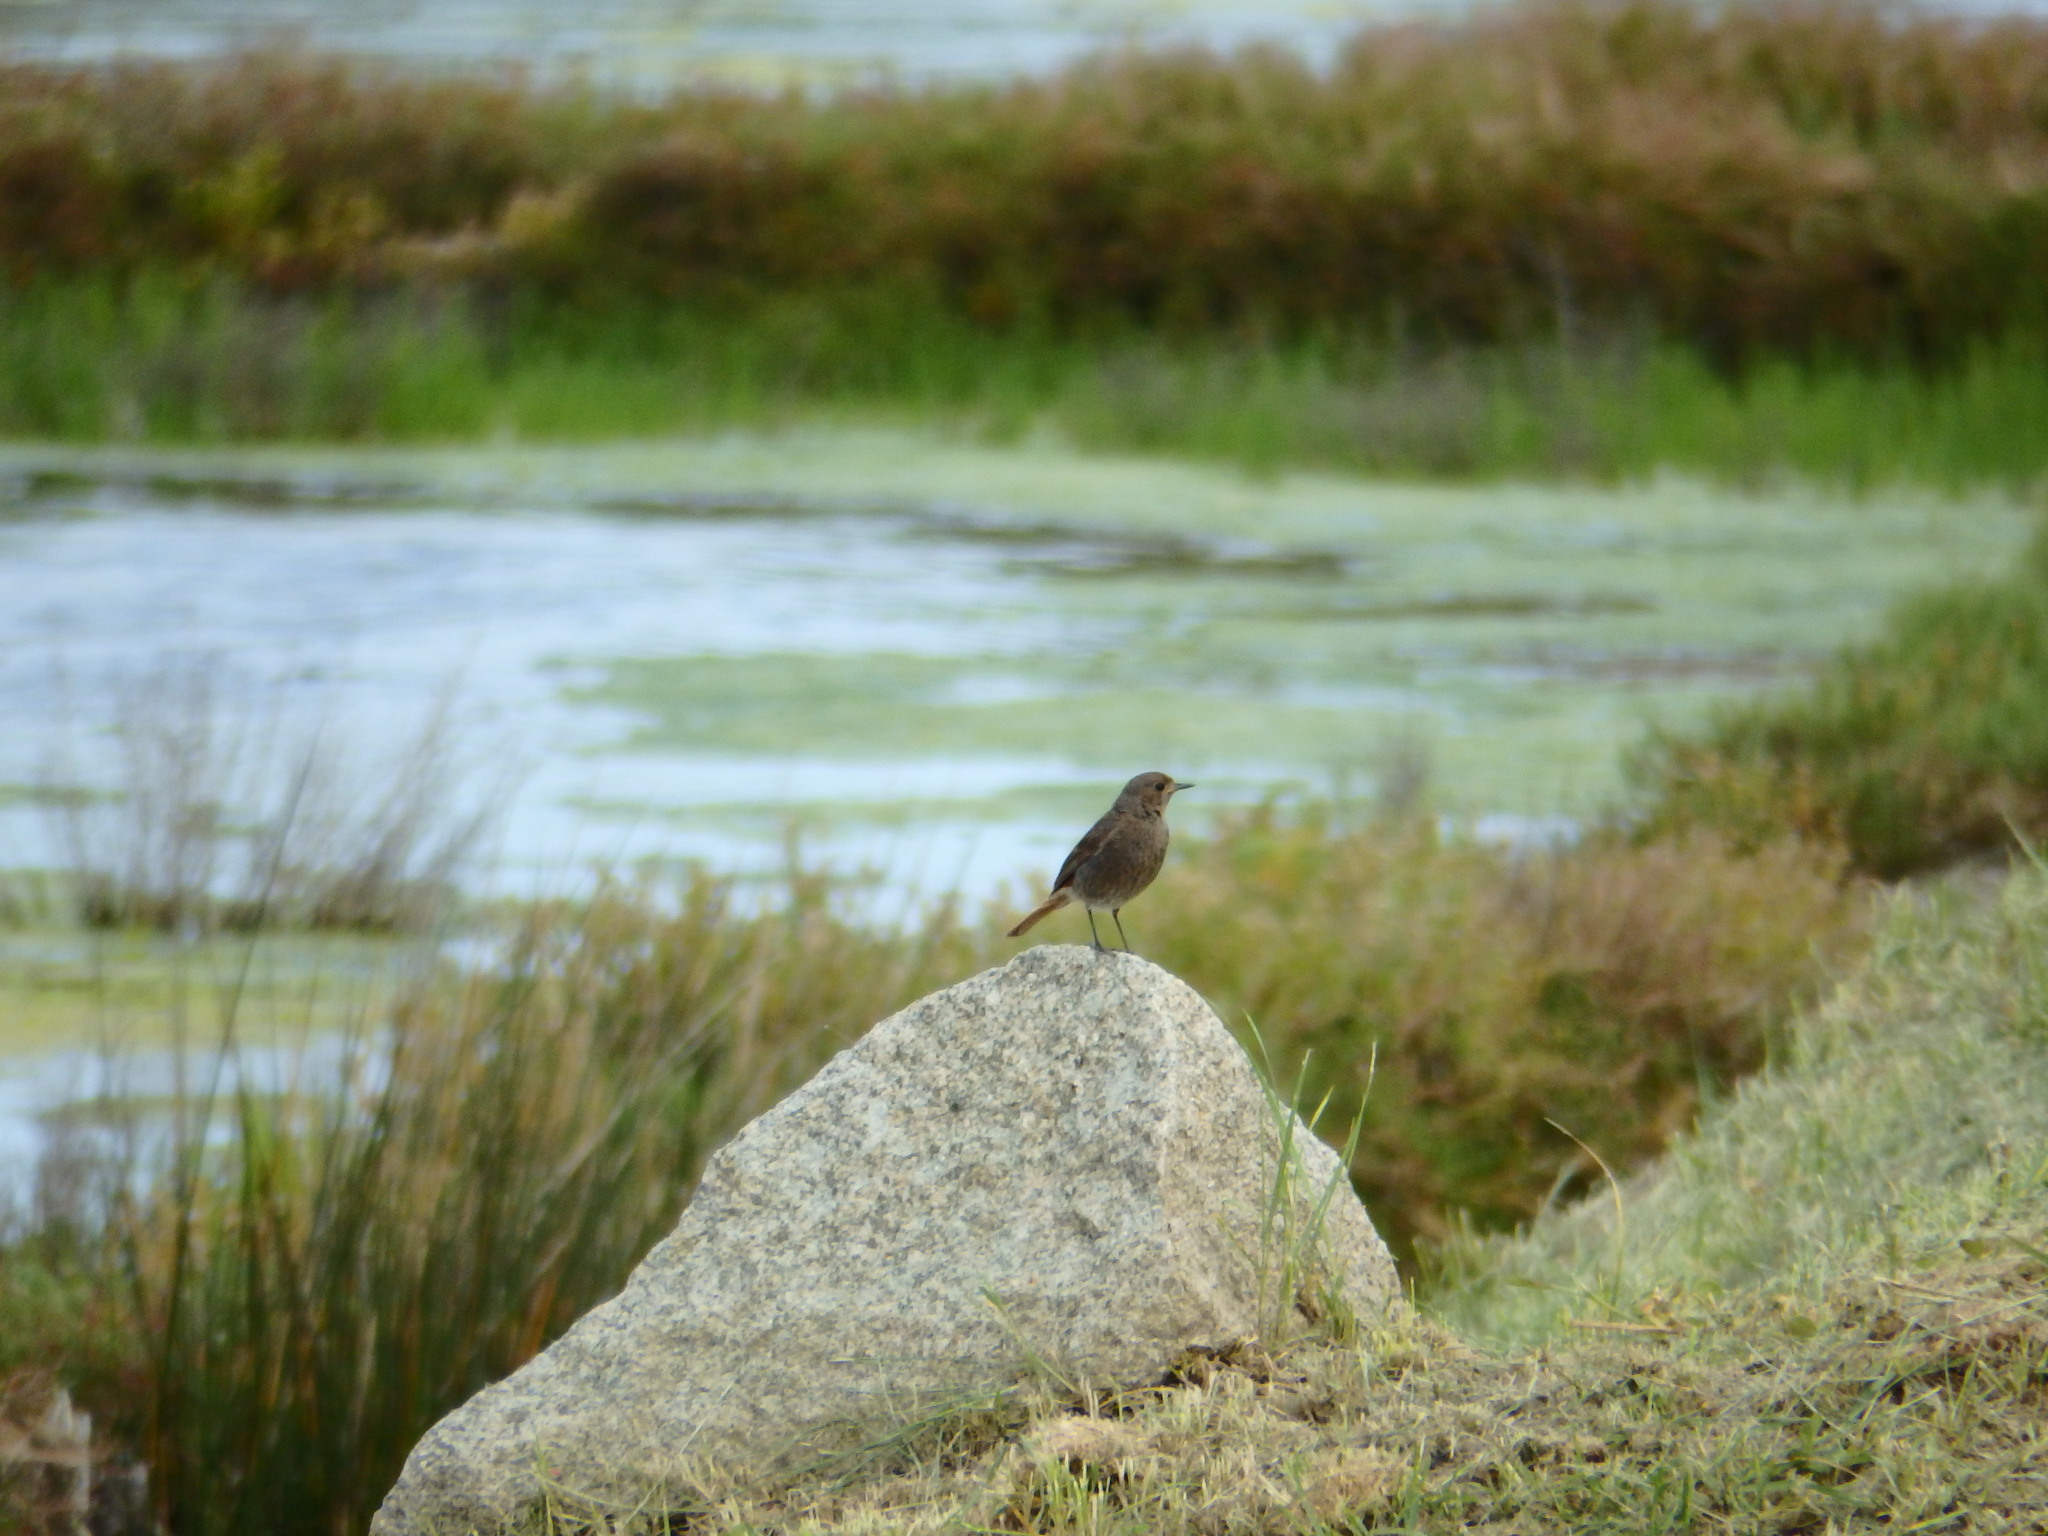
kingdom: Animalia
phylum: Chordata
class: Aves
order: Passeriformes
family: Muscicapidae
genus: Phoenicurus
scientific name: Phoenicurus ochruros
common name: Black redstart
